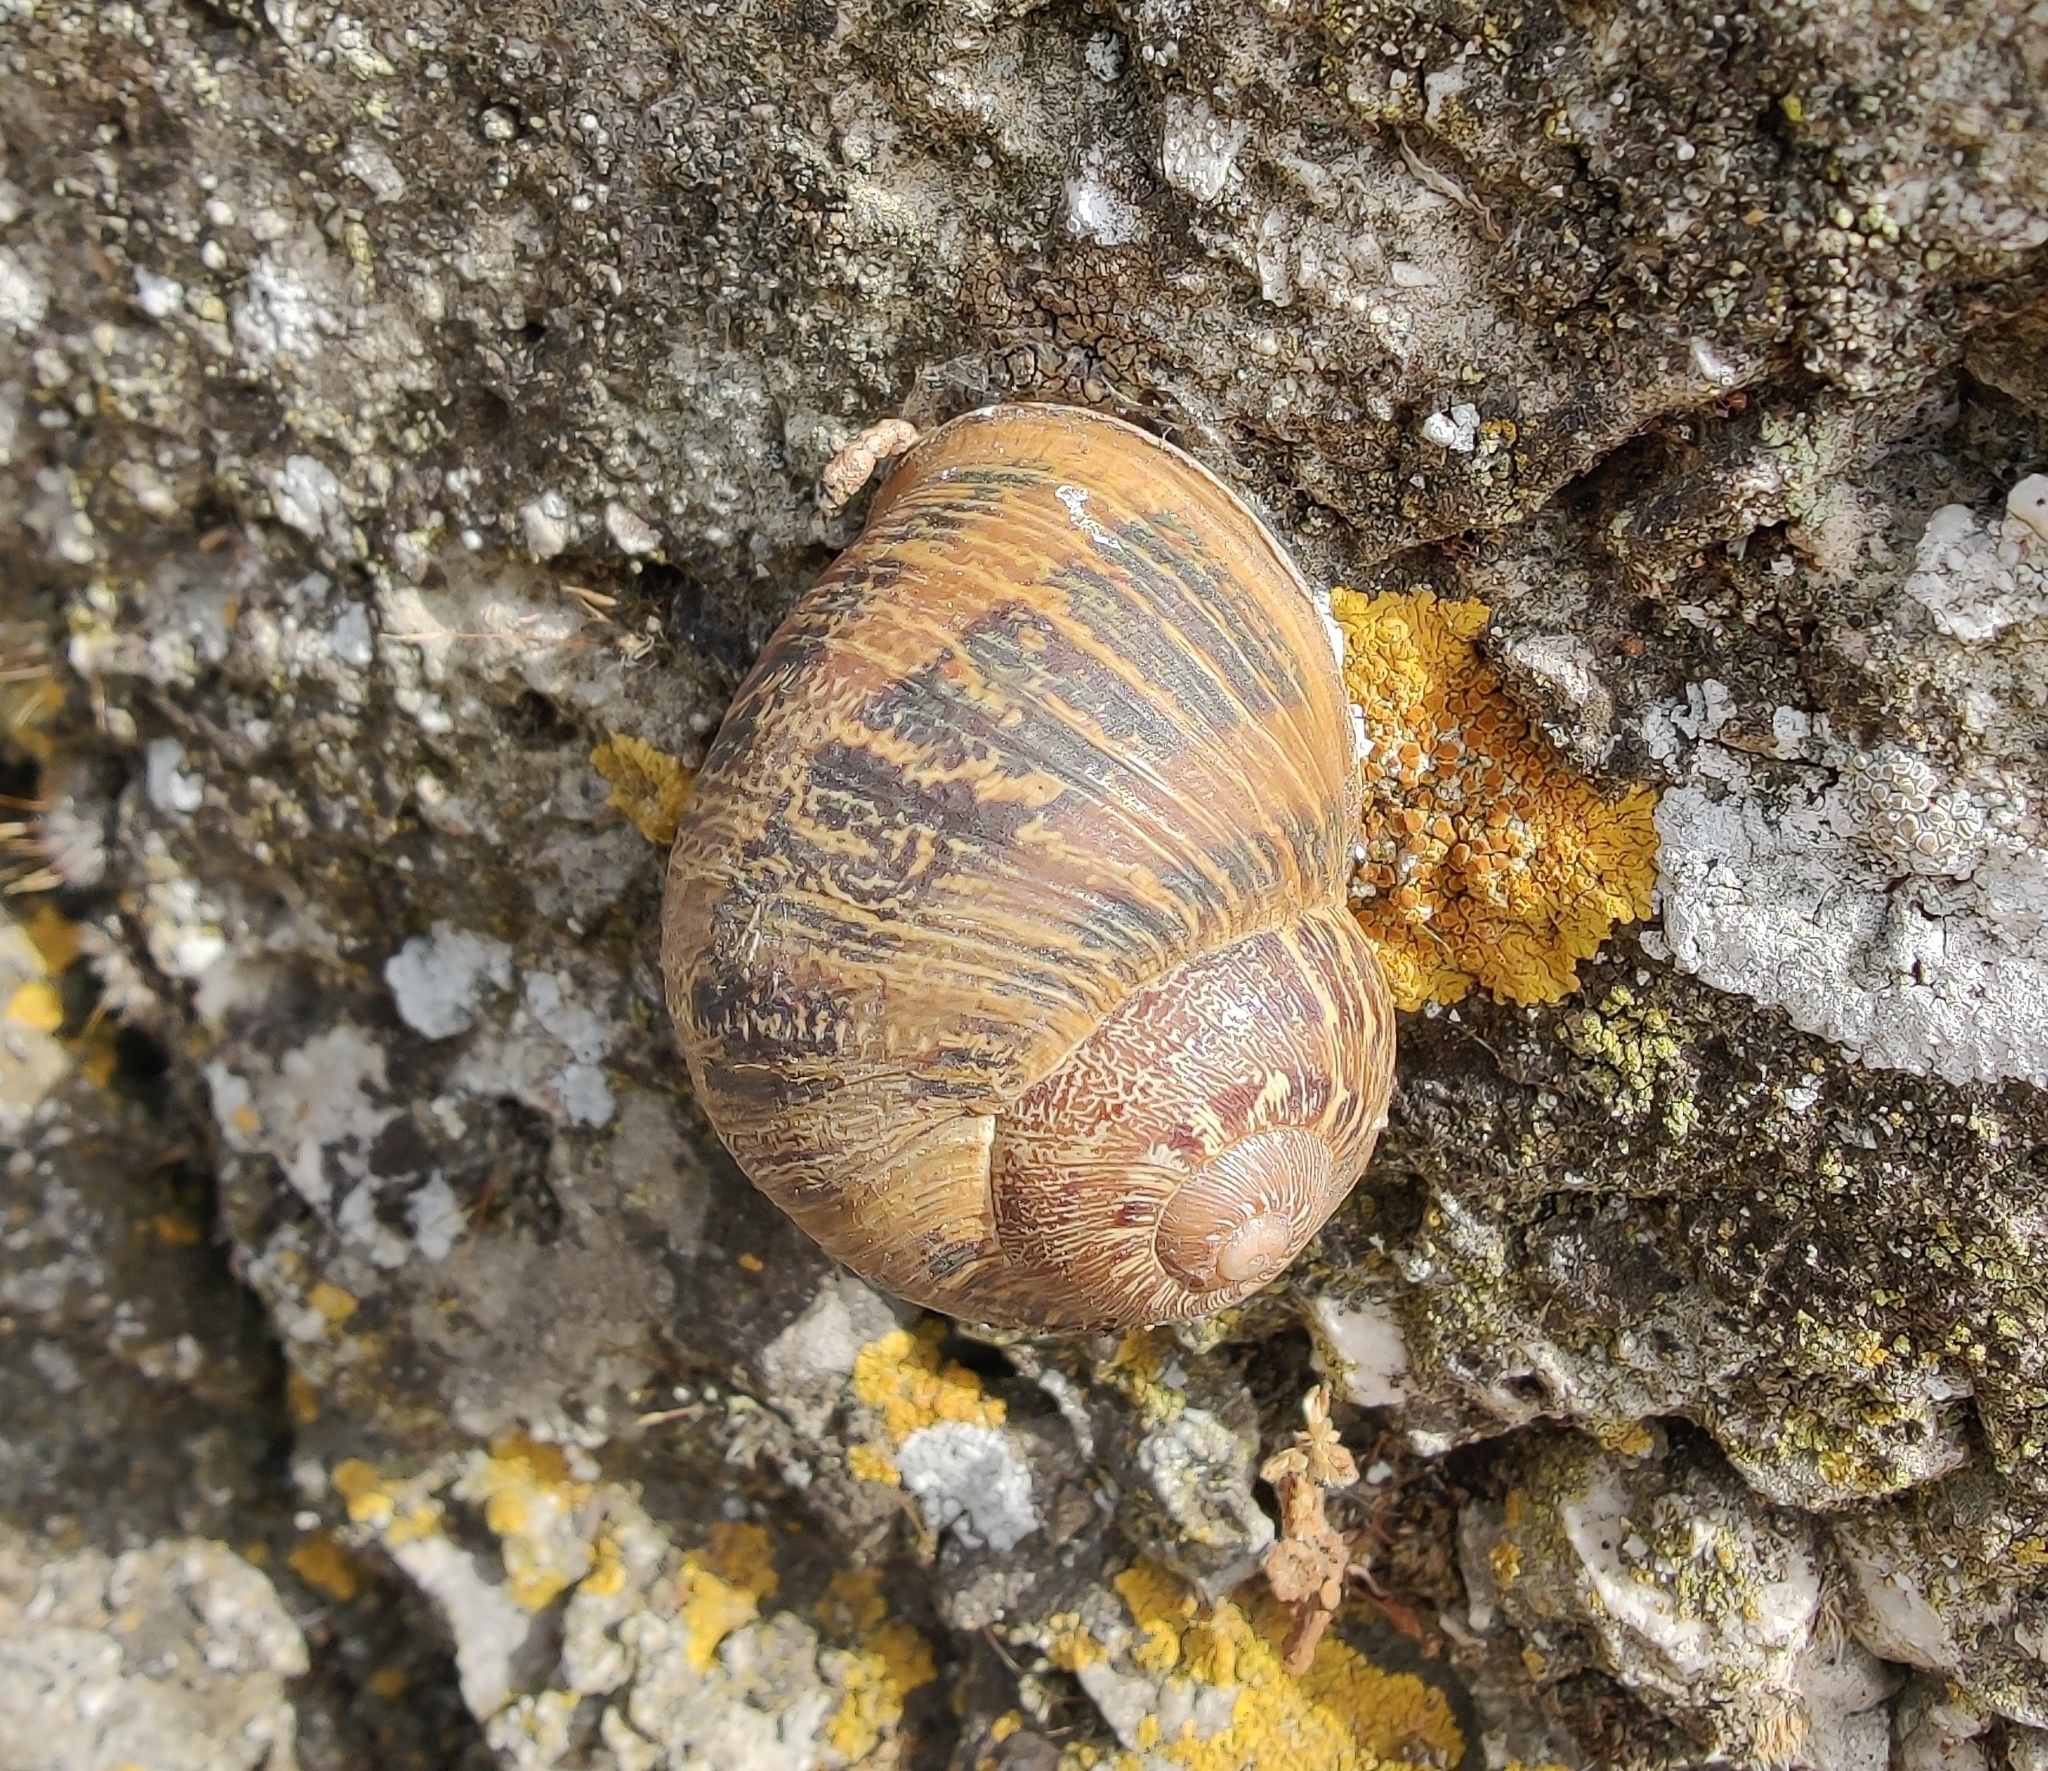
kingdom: Animalia
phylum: Mollusca
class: Gastropoda
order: Stylommatophora
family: Helicidae
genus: Cornu
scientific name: Cornu aspersum
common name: Brown garden snail
